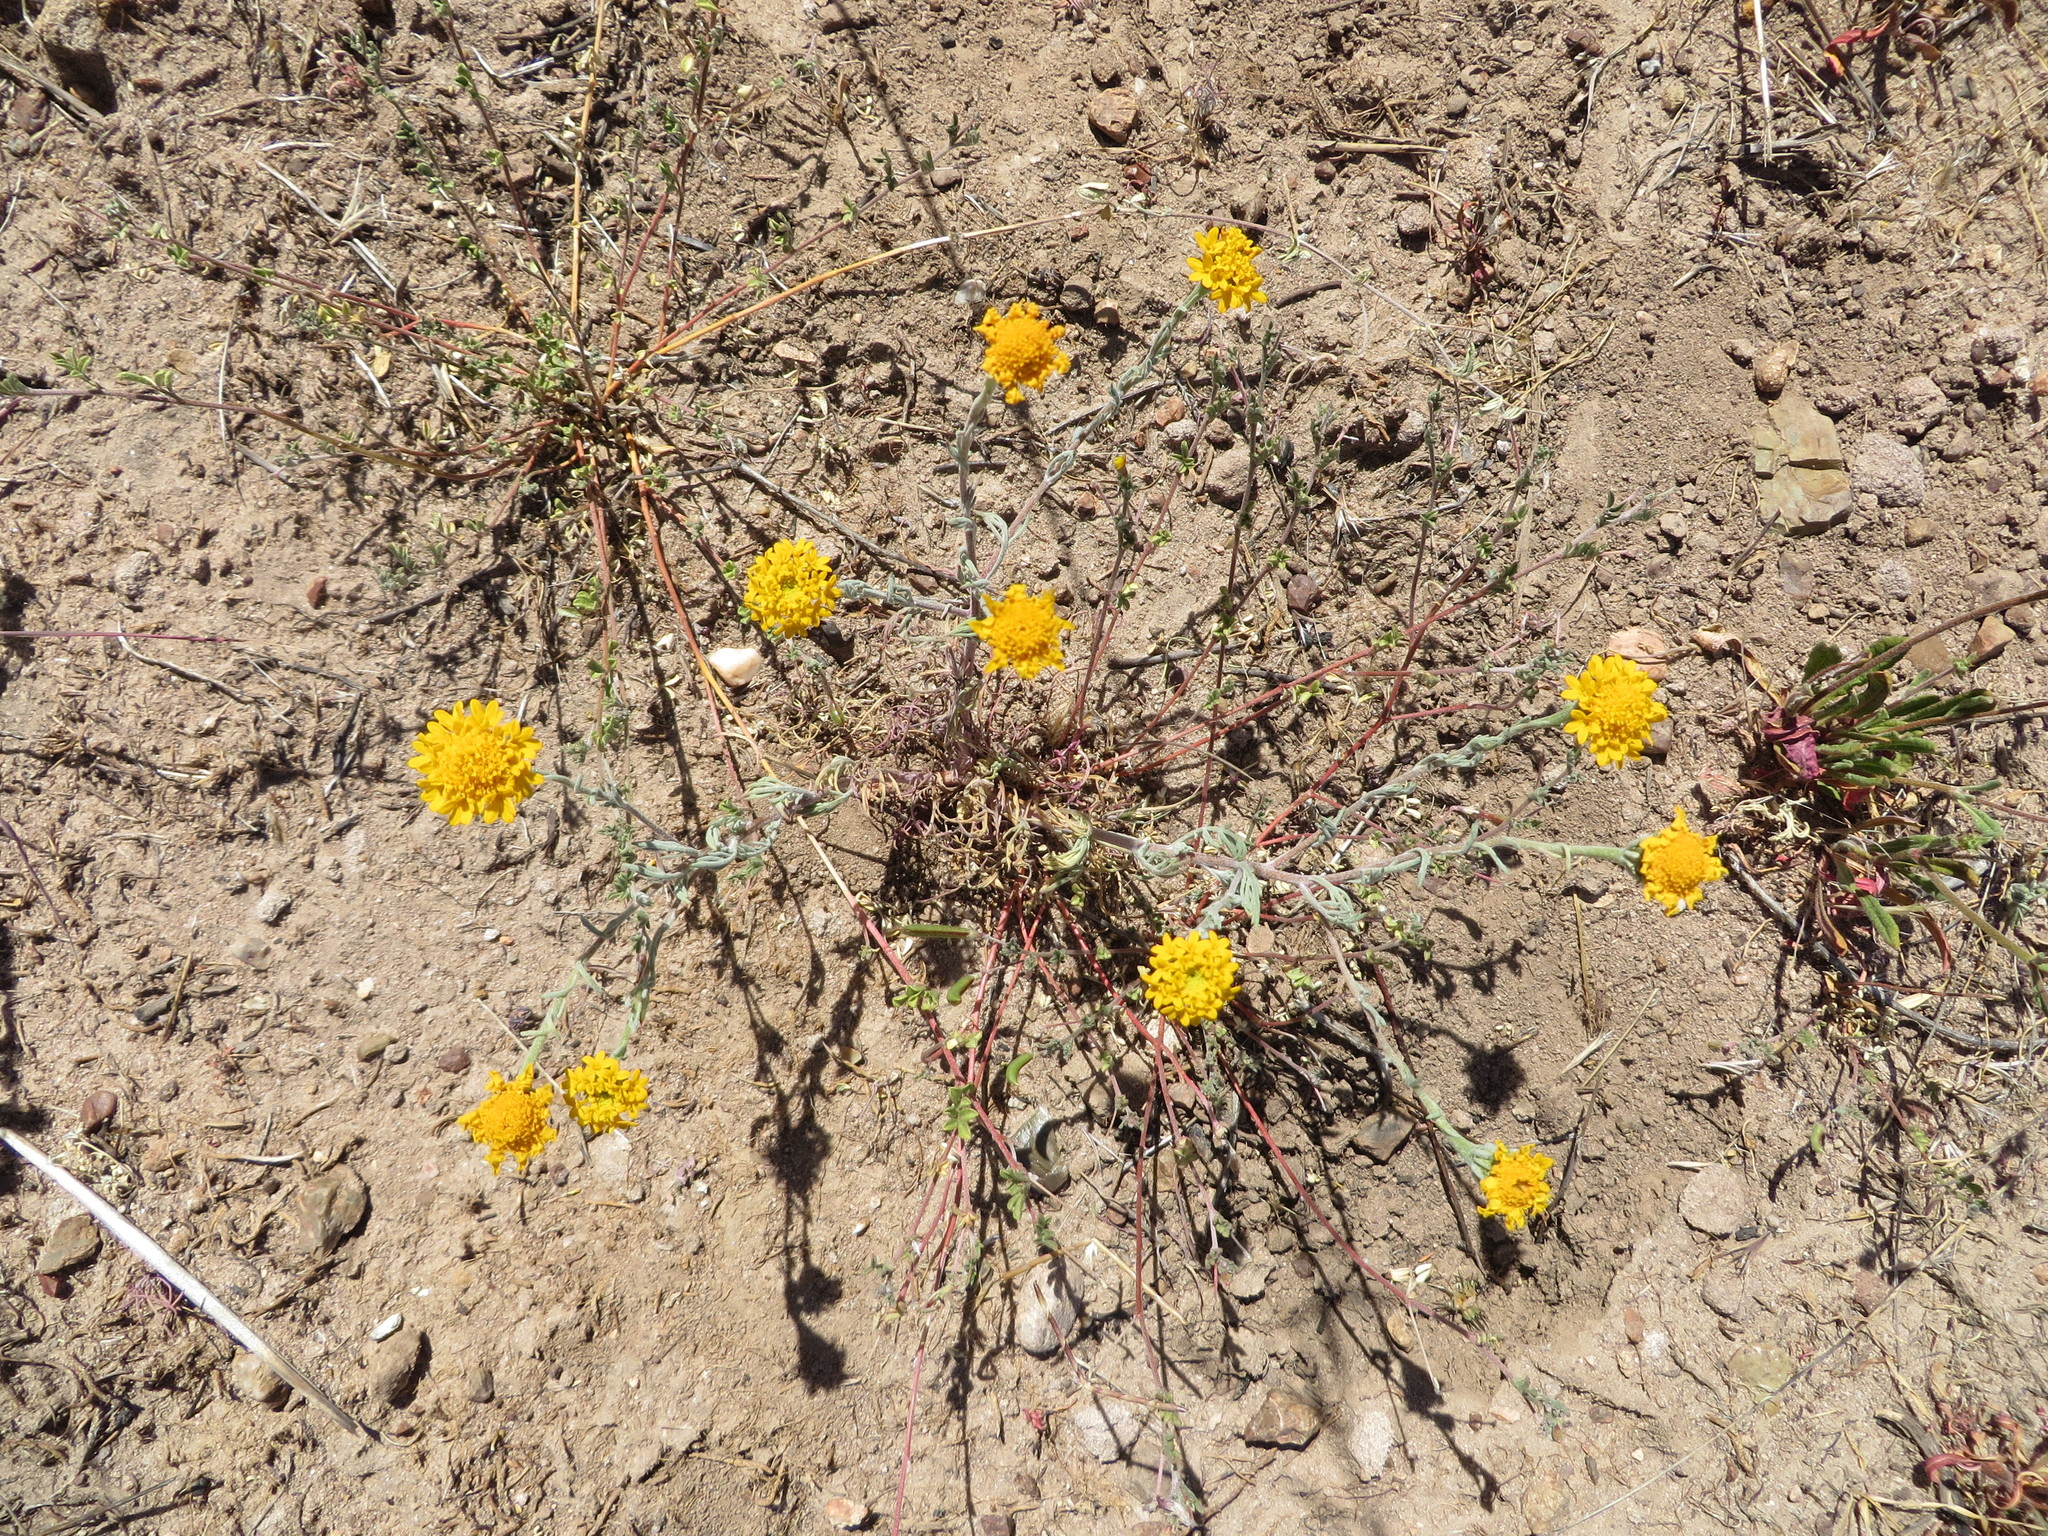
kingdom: Plantae
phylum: Tracheophyta
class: Magnoliopsida
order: Asterales
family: Asteraceae
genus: Chaenactis
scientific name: Chaenactis glabriuscula
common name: Yellow pincushion
